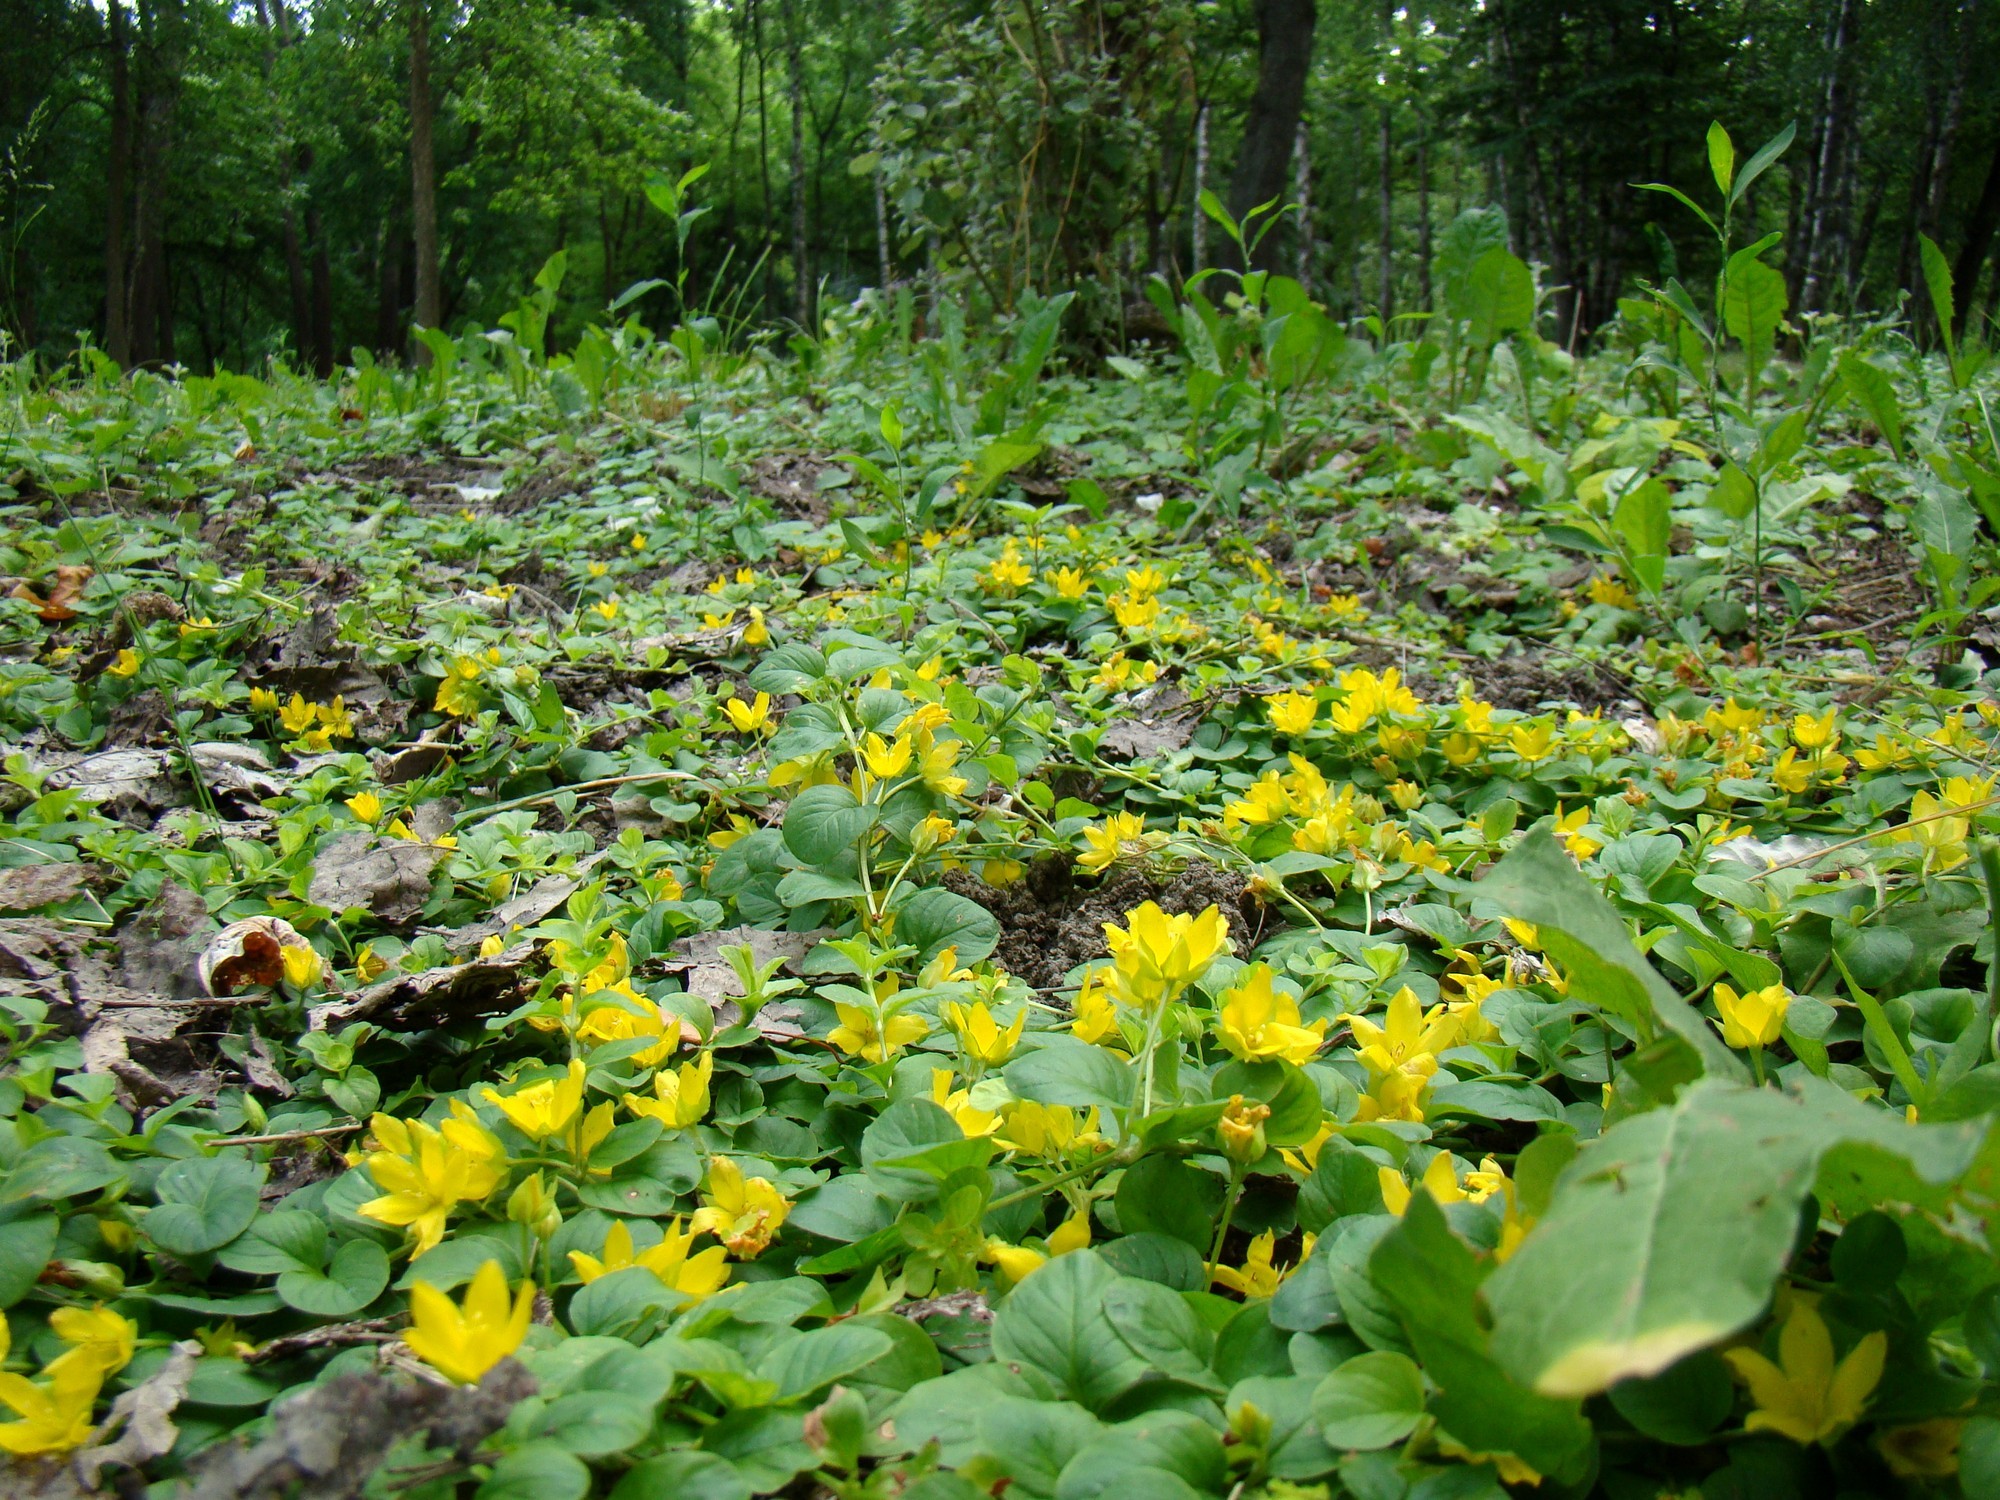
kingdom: Plantae
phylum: Tracheophyta
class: Magnoliopsida
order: Ericales
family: Primulaceae
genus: Lysimachia
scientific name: Lysimachia nummularia
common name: Moneywort
